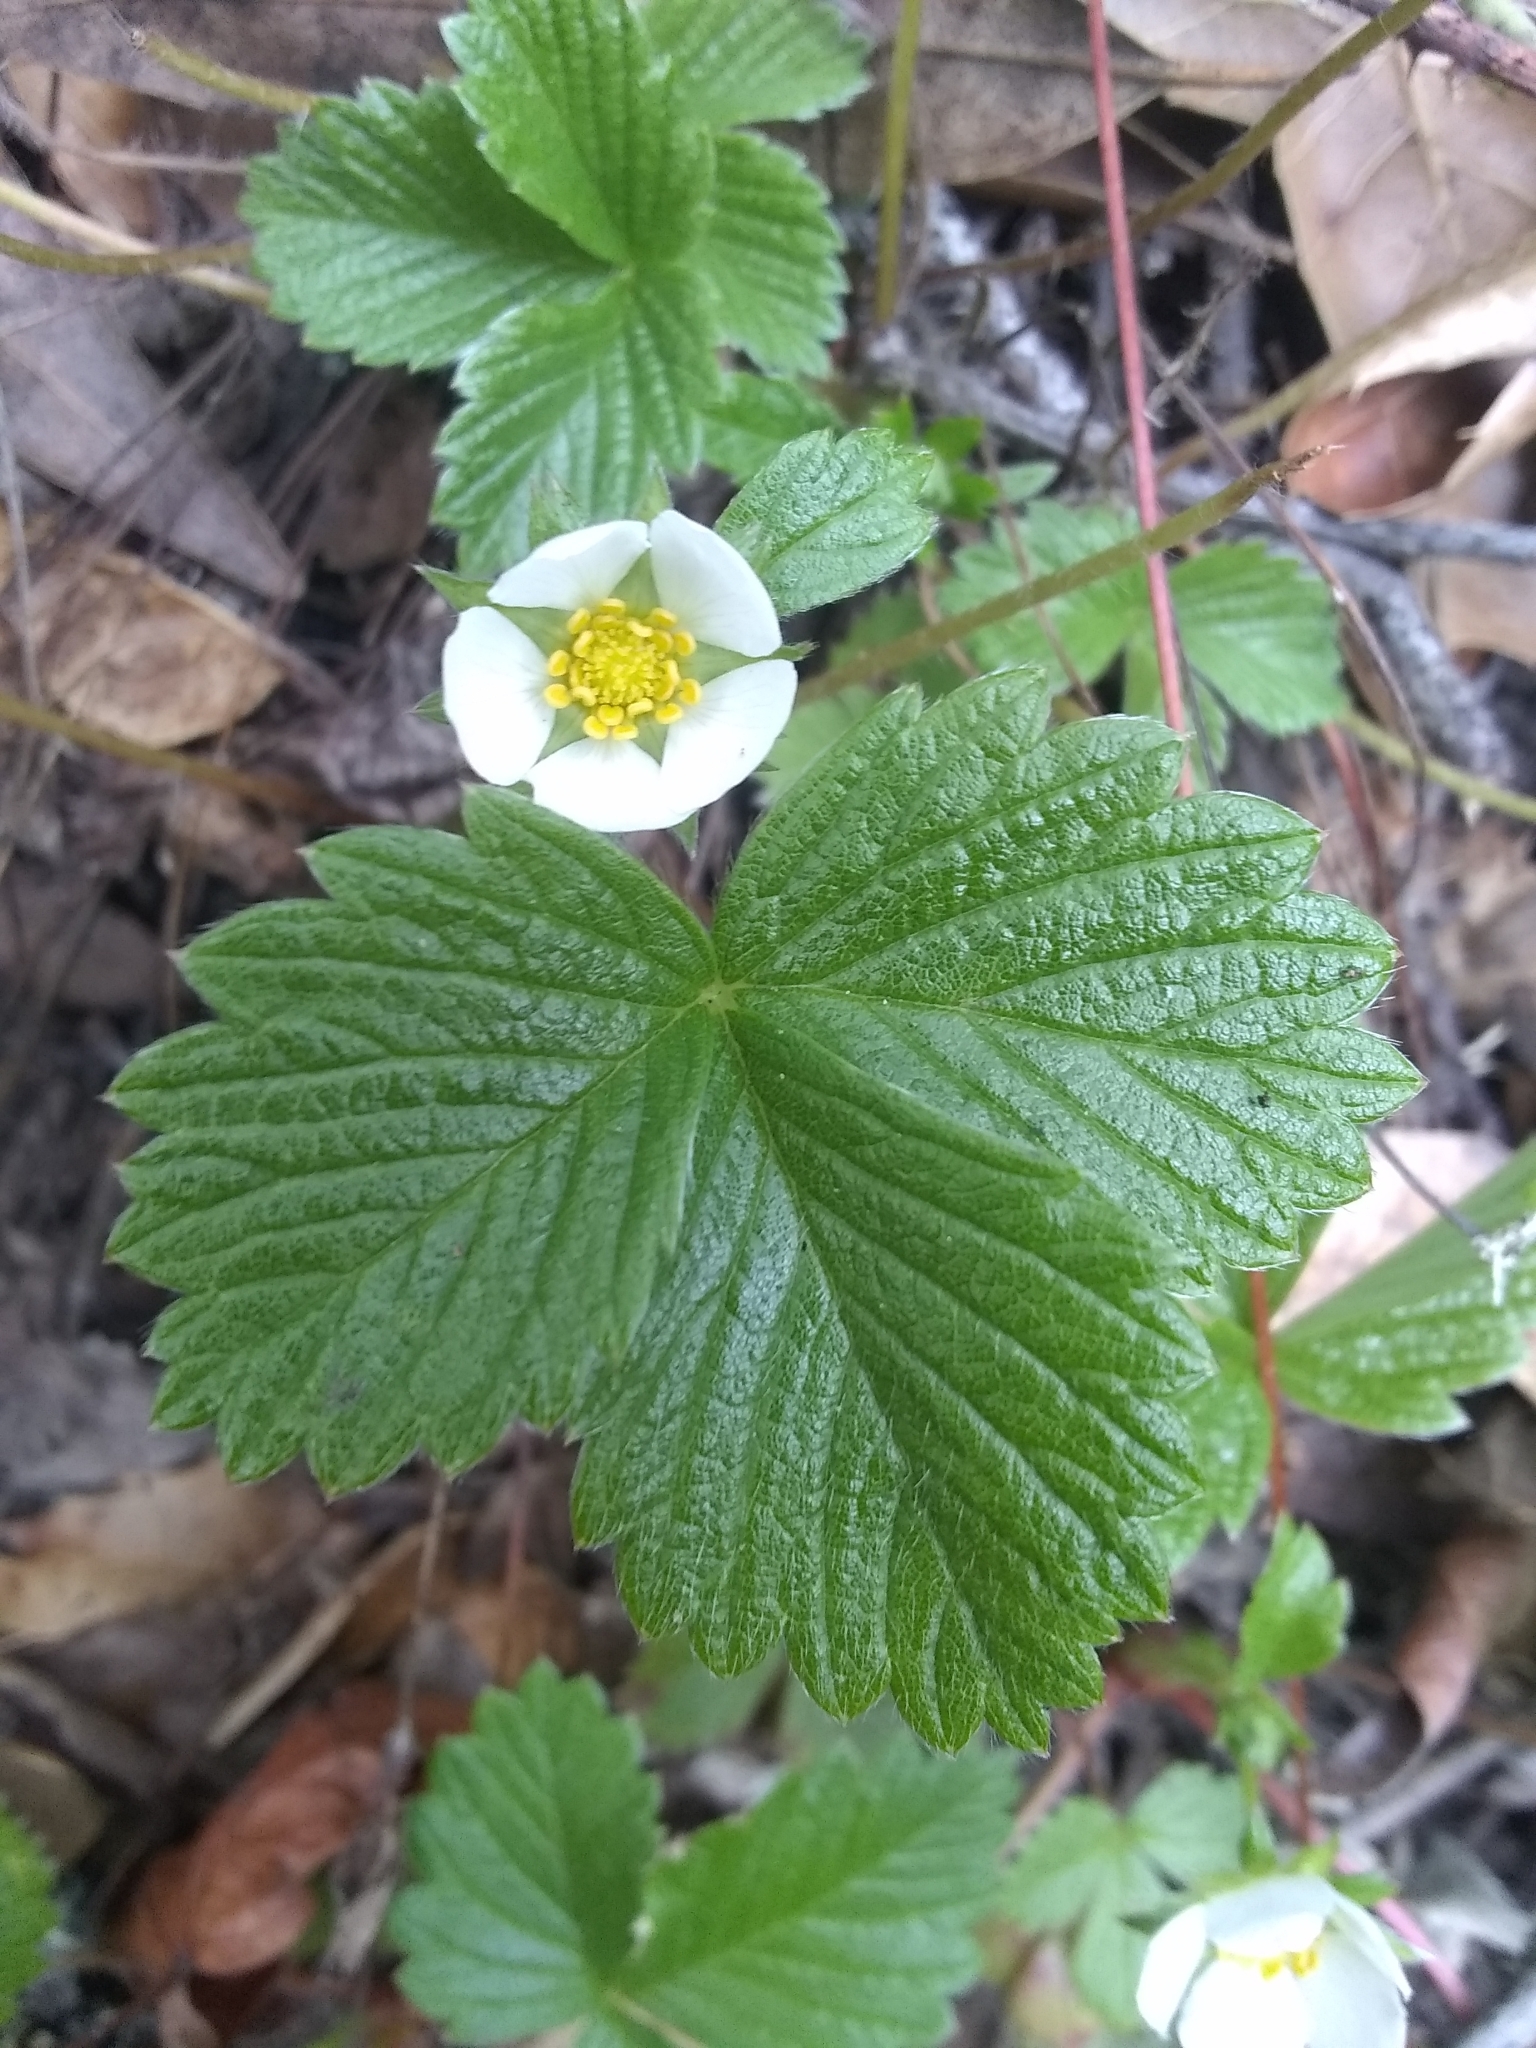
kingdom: Plantae
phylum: Tracheophyta
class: Magnoliopsida
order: Rosales
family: Rosaceae
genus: Fragaria
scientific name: Fragaria vesca
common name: Wild strawberry
